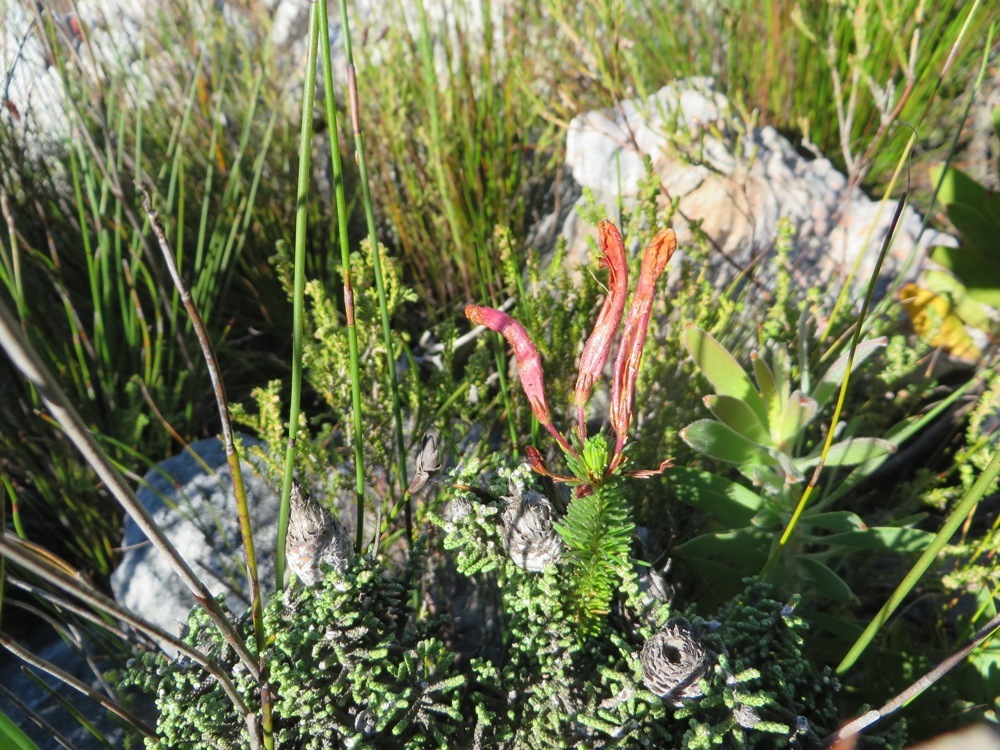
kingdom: Plantae
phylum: Tracheophyta
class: Magnoliopsida
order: Ericales
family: Ericaceae
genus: Erica
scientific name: Erica fascicularis
